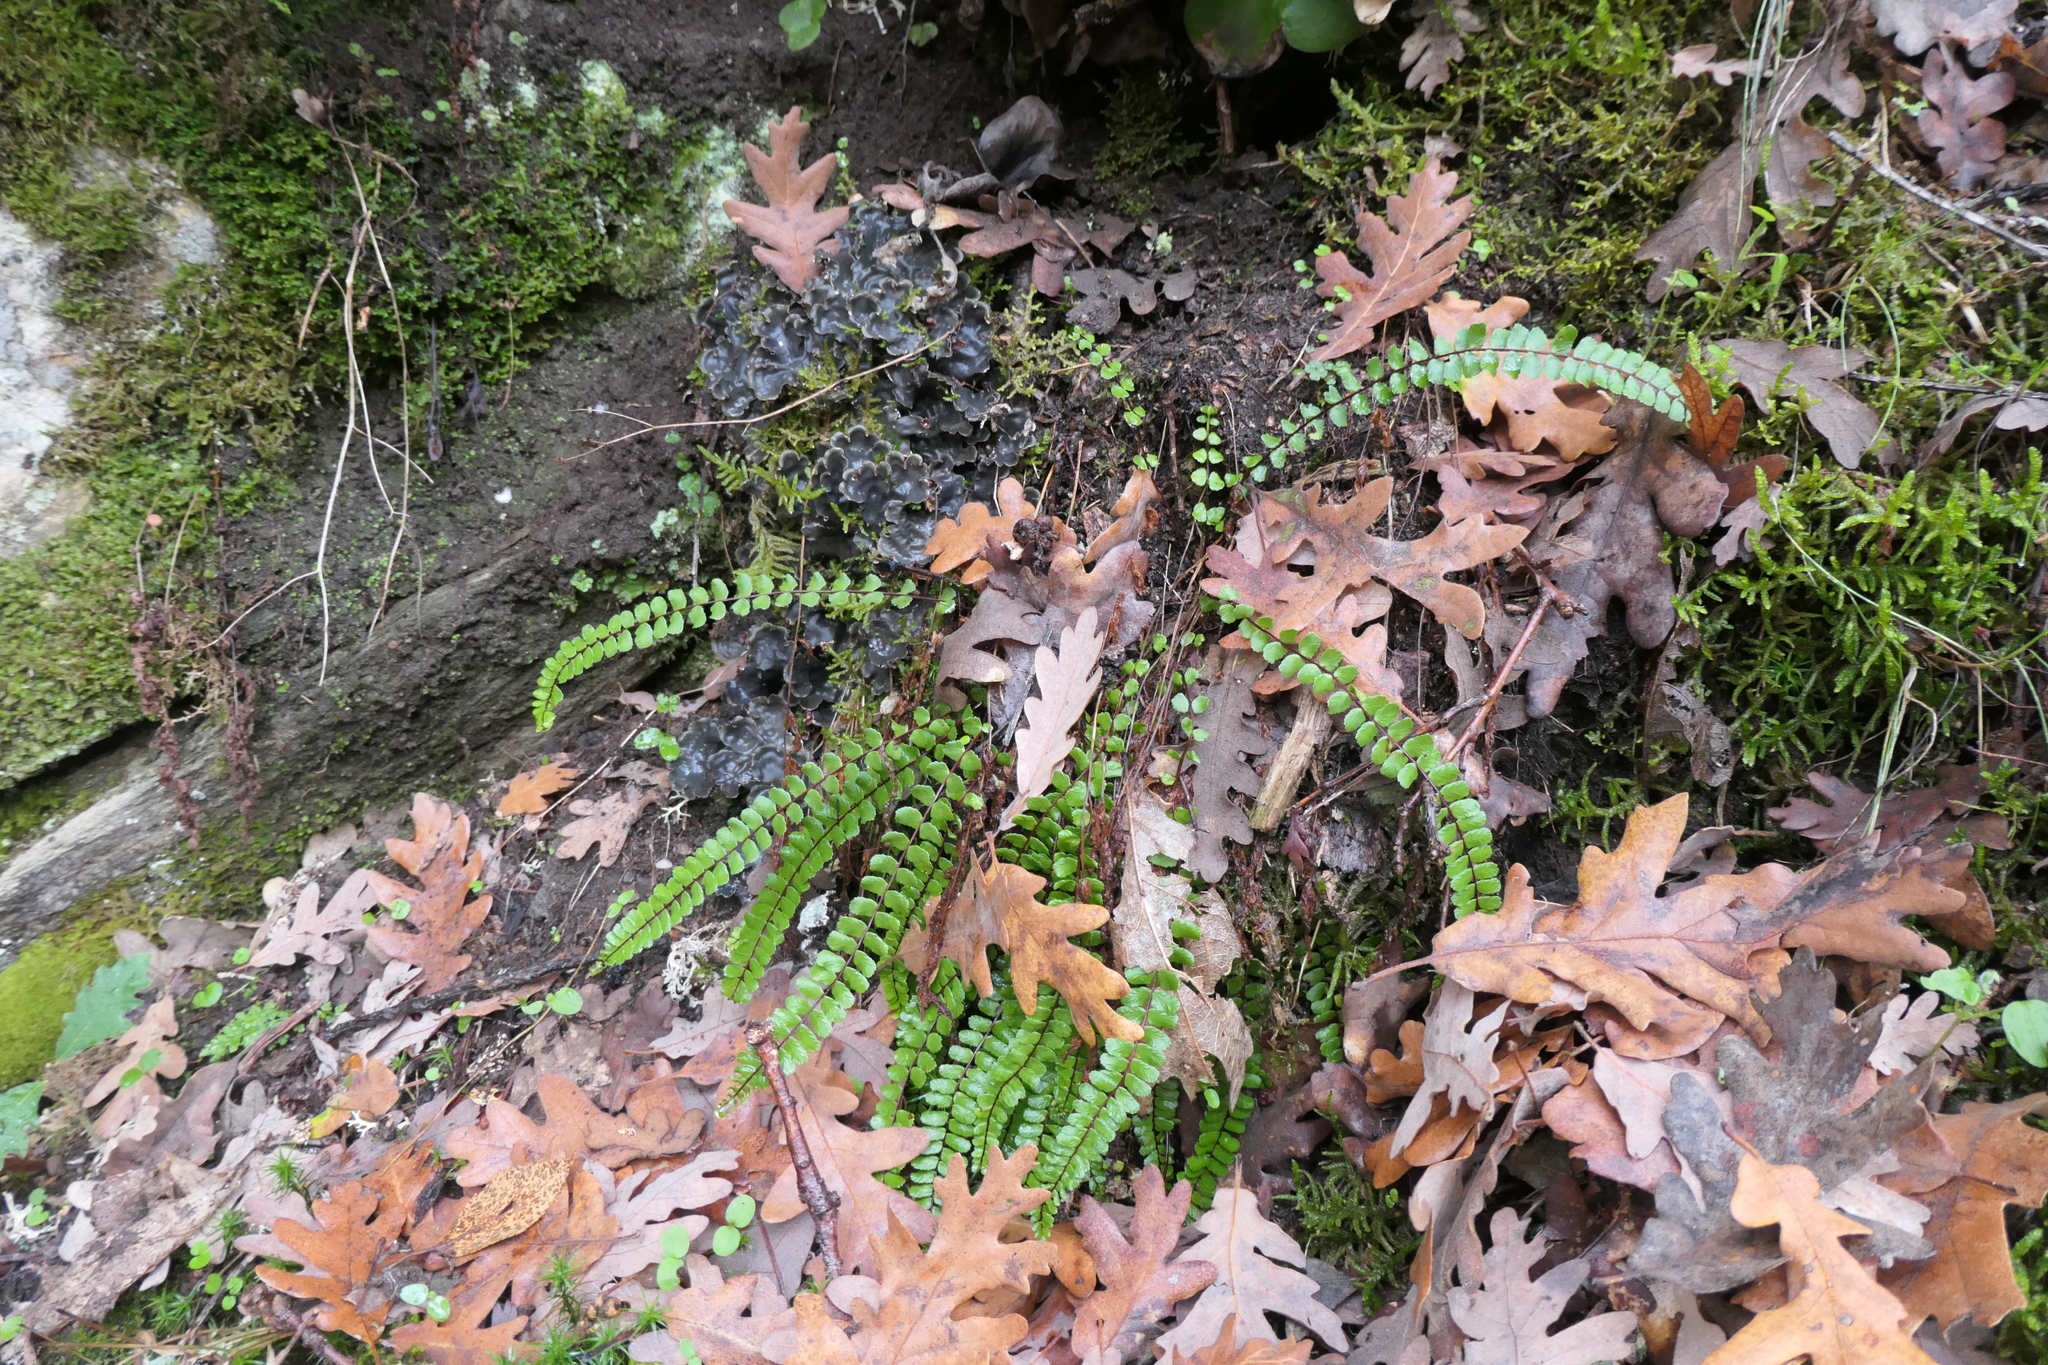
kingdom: Plantae
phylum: Tracheophyta
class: Polypodiopsida
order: Polypodiales
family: Aspleniaceae
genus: Asplenium
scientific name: Asplenium trichomanes
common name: Maidenhair spleenwort
